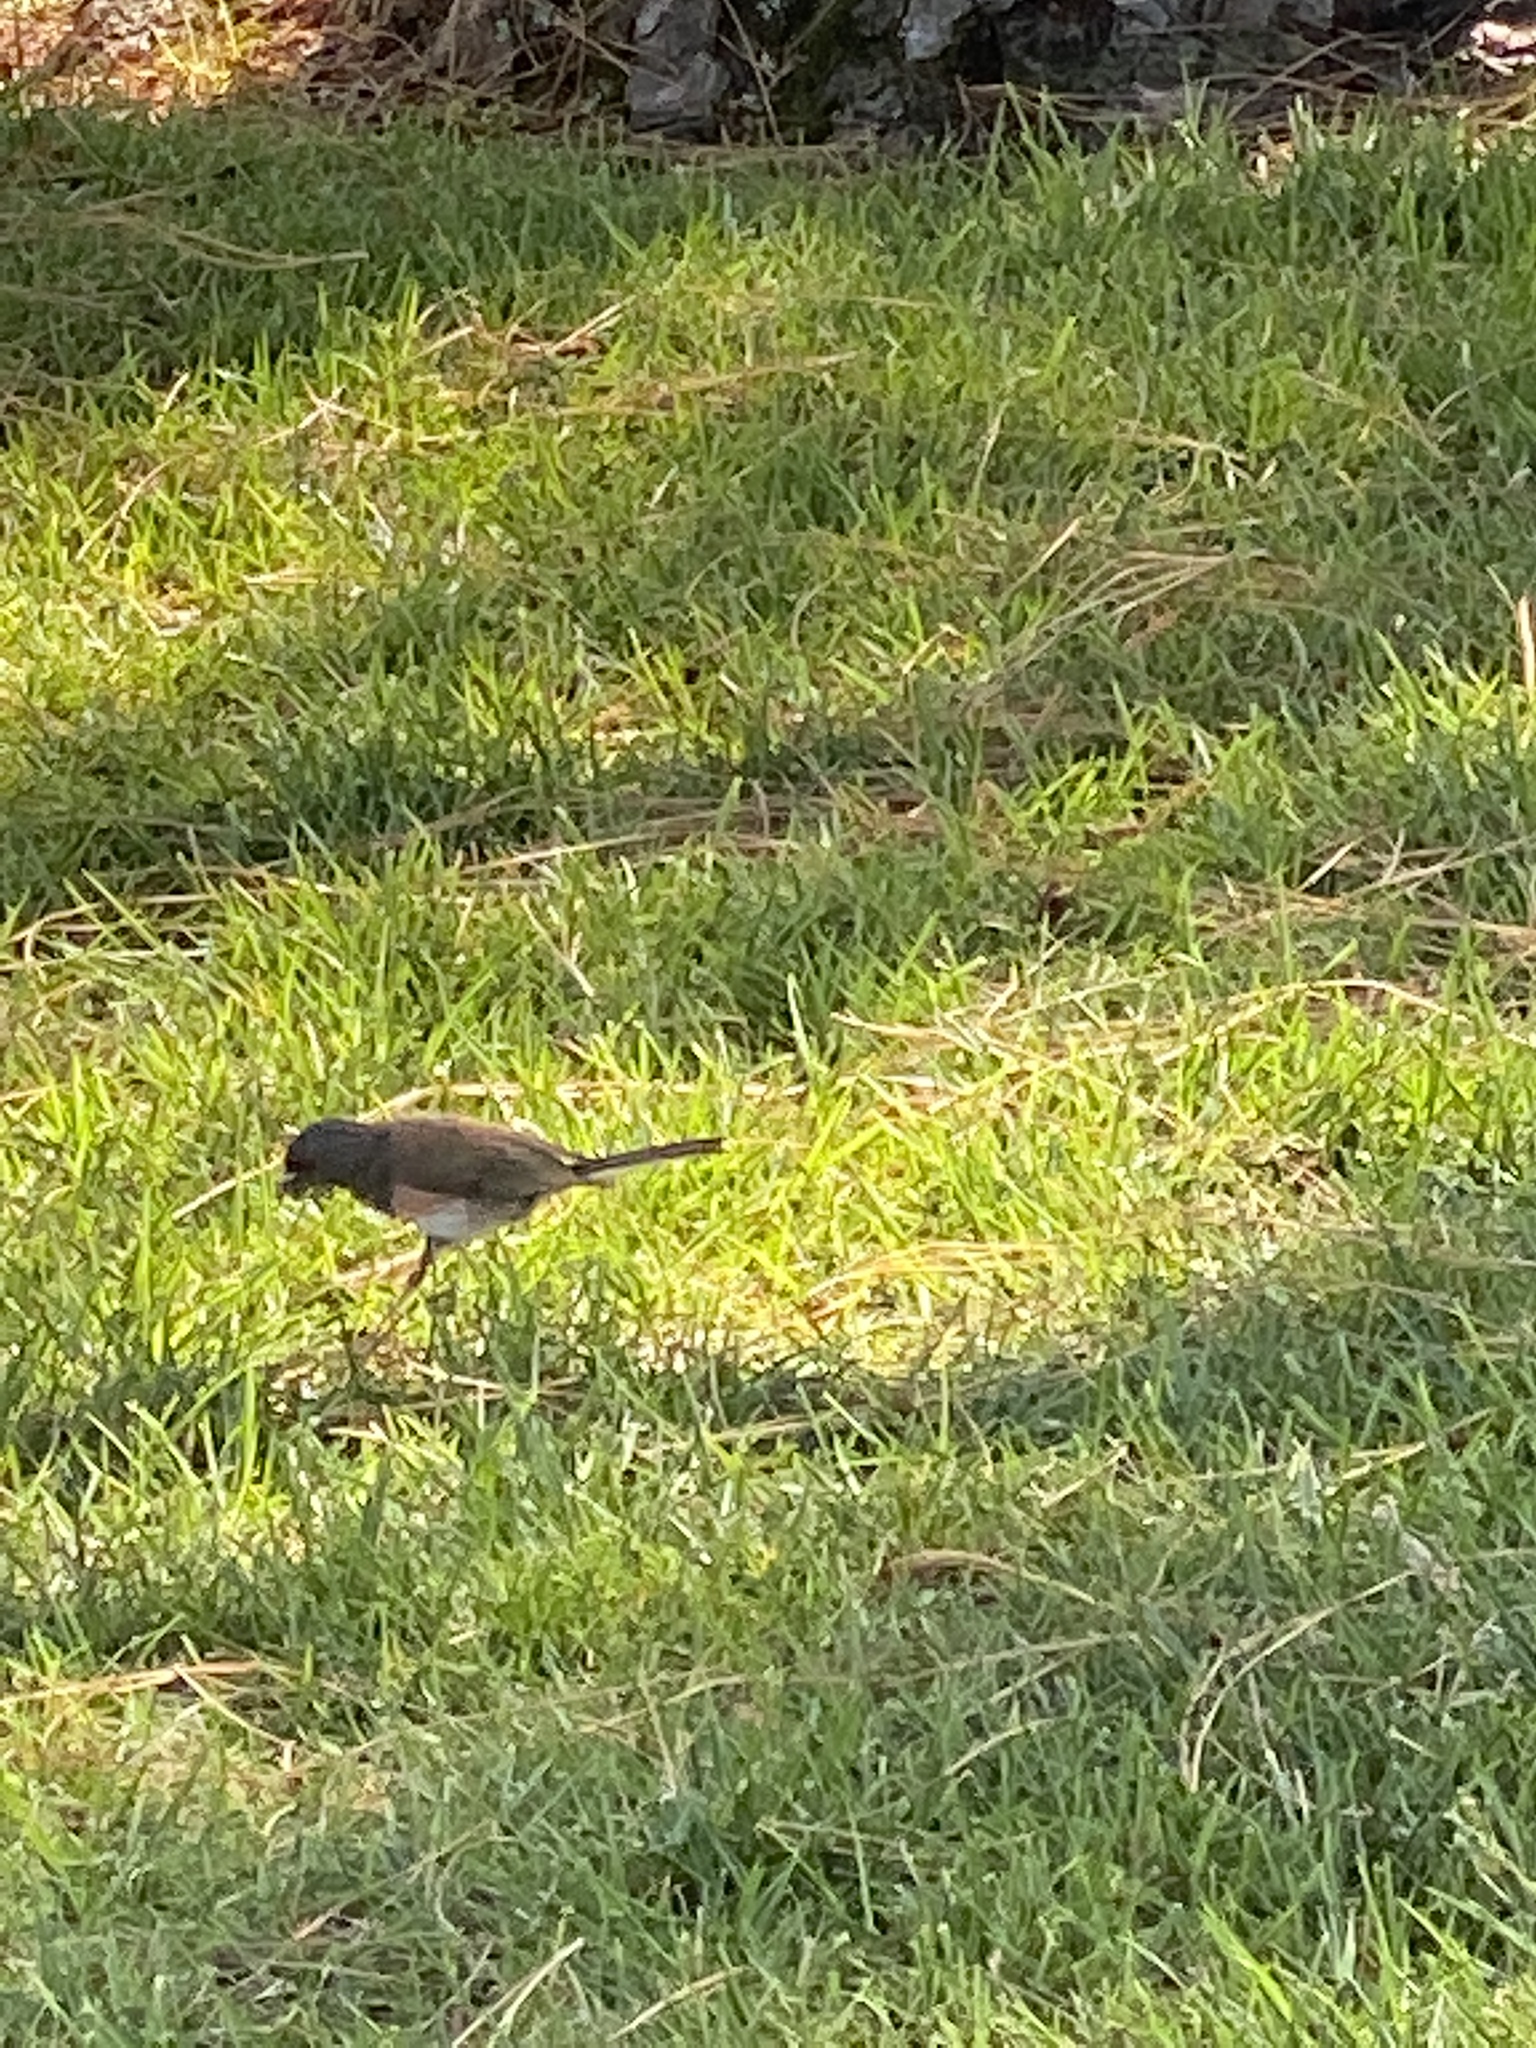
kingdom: Animalia
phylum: Chordata
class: Aves
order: Passeriformes
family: Passerellidae
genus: Junco
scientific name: Junco hyemalis
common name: Dark-eyed junco
